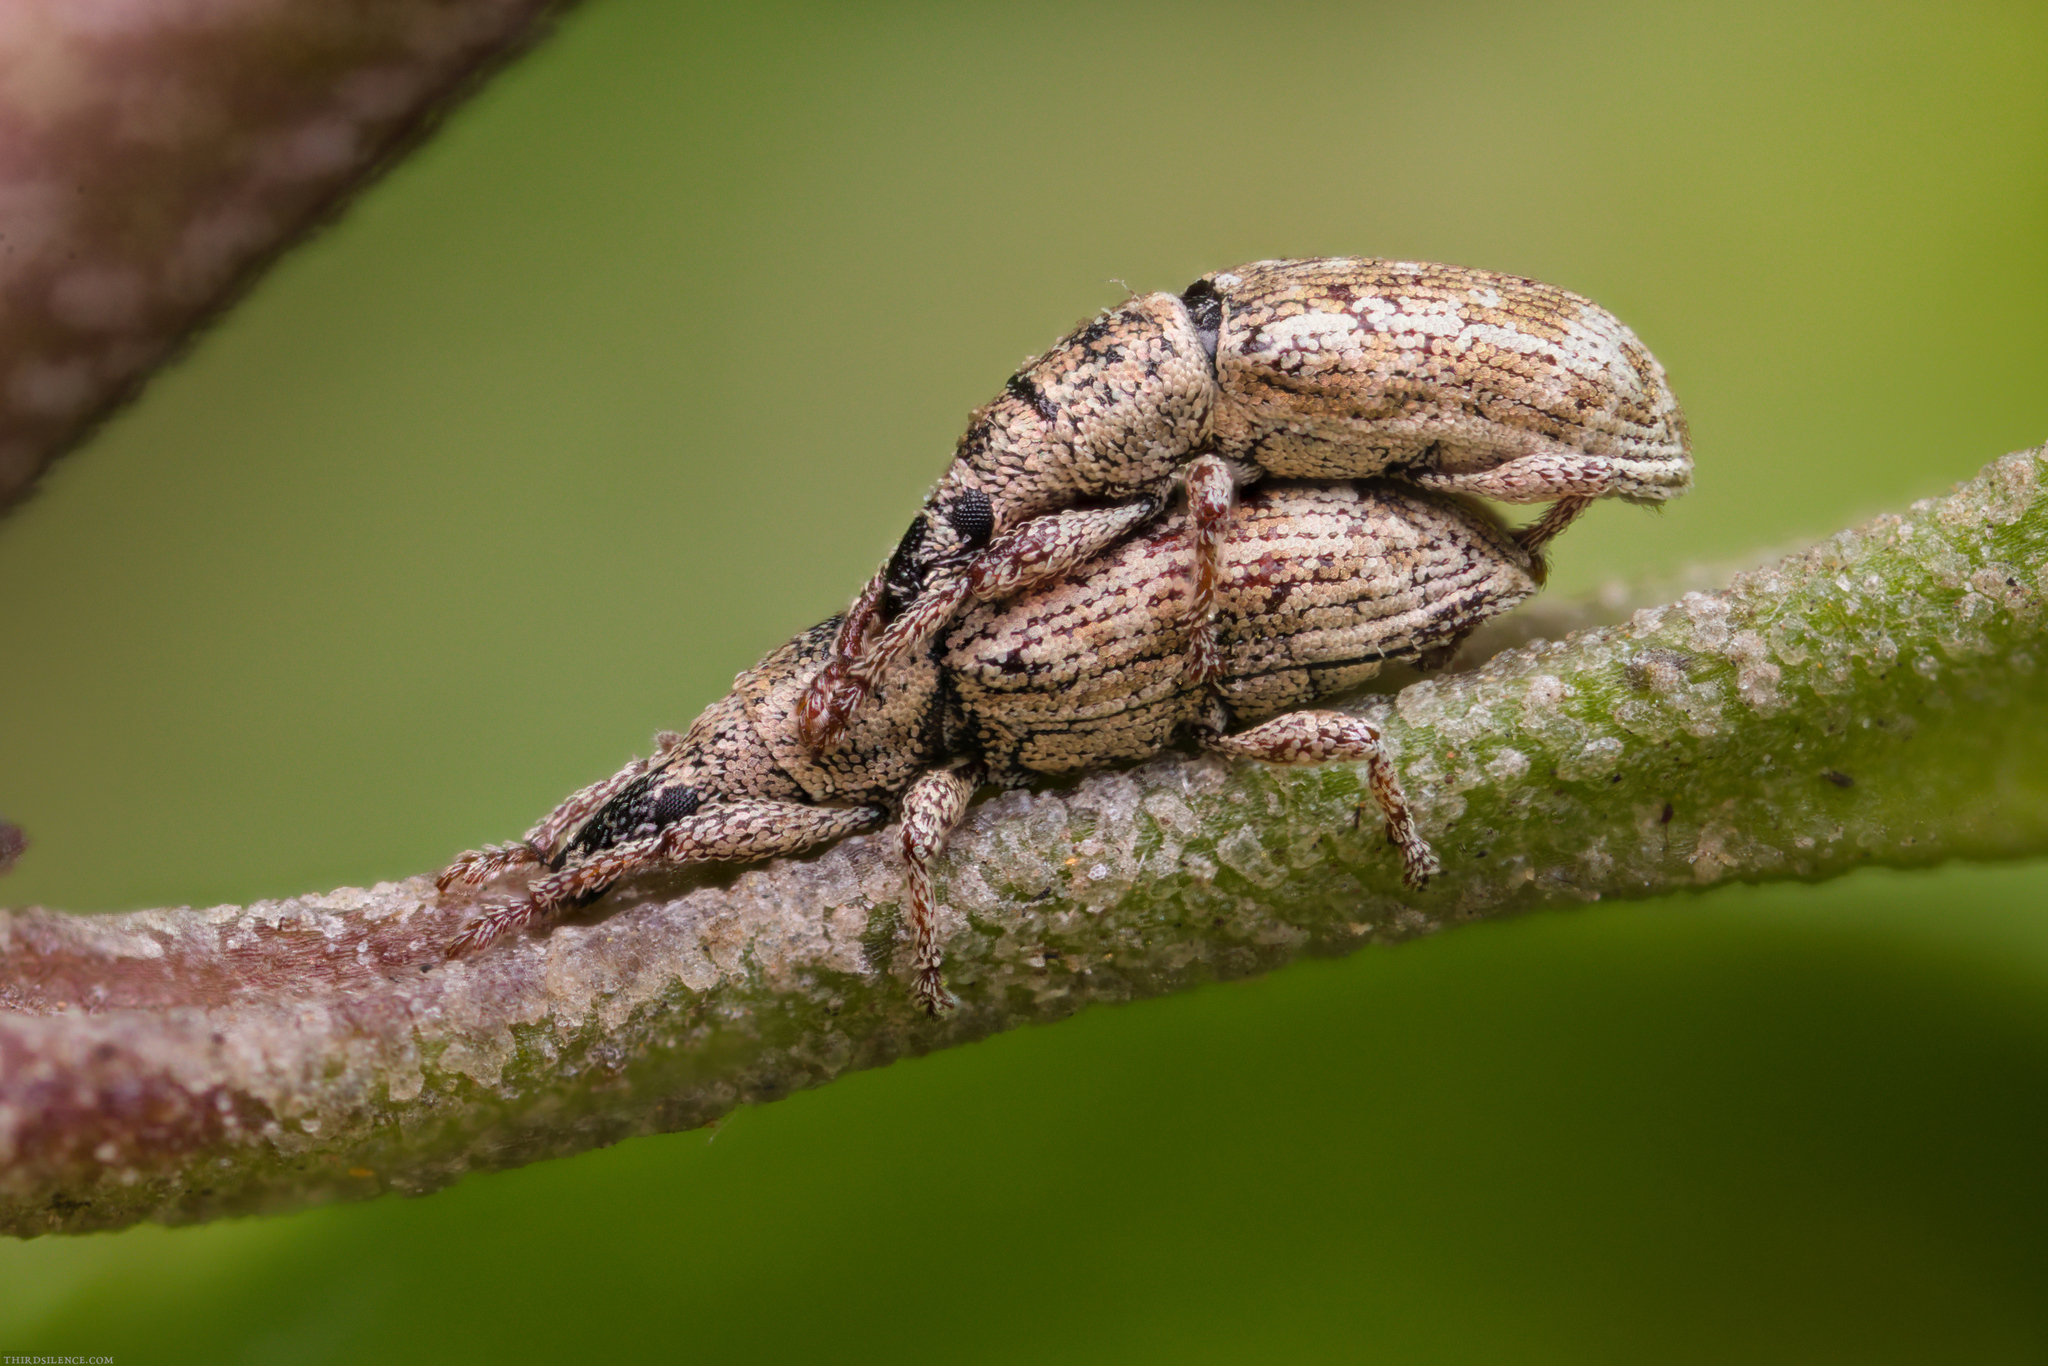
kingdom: Animalia
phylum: Arthropoda
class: Insecta
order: Coleoptera
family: Curculionidae
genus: Acalonoma
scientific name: Acalonoma pusilla
